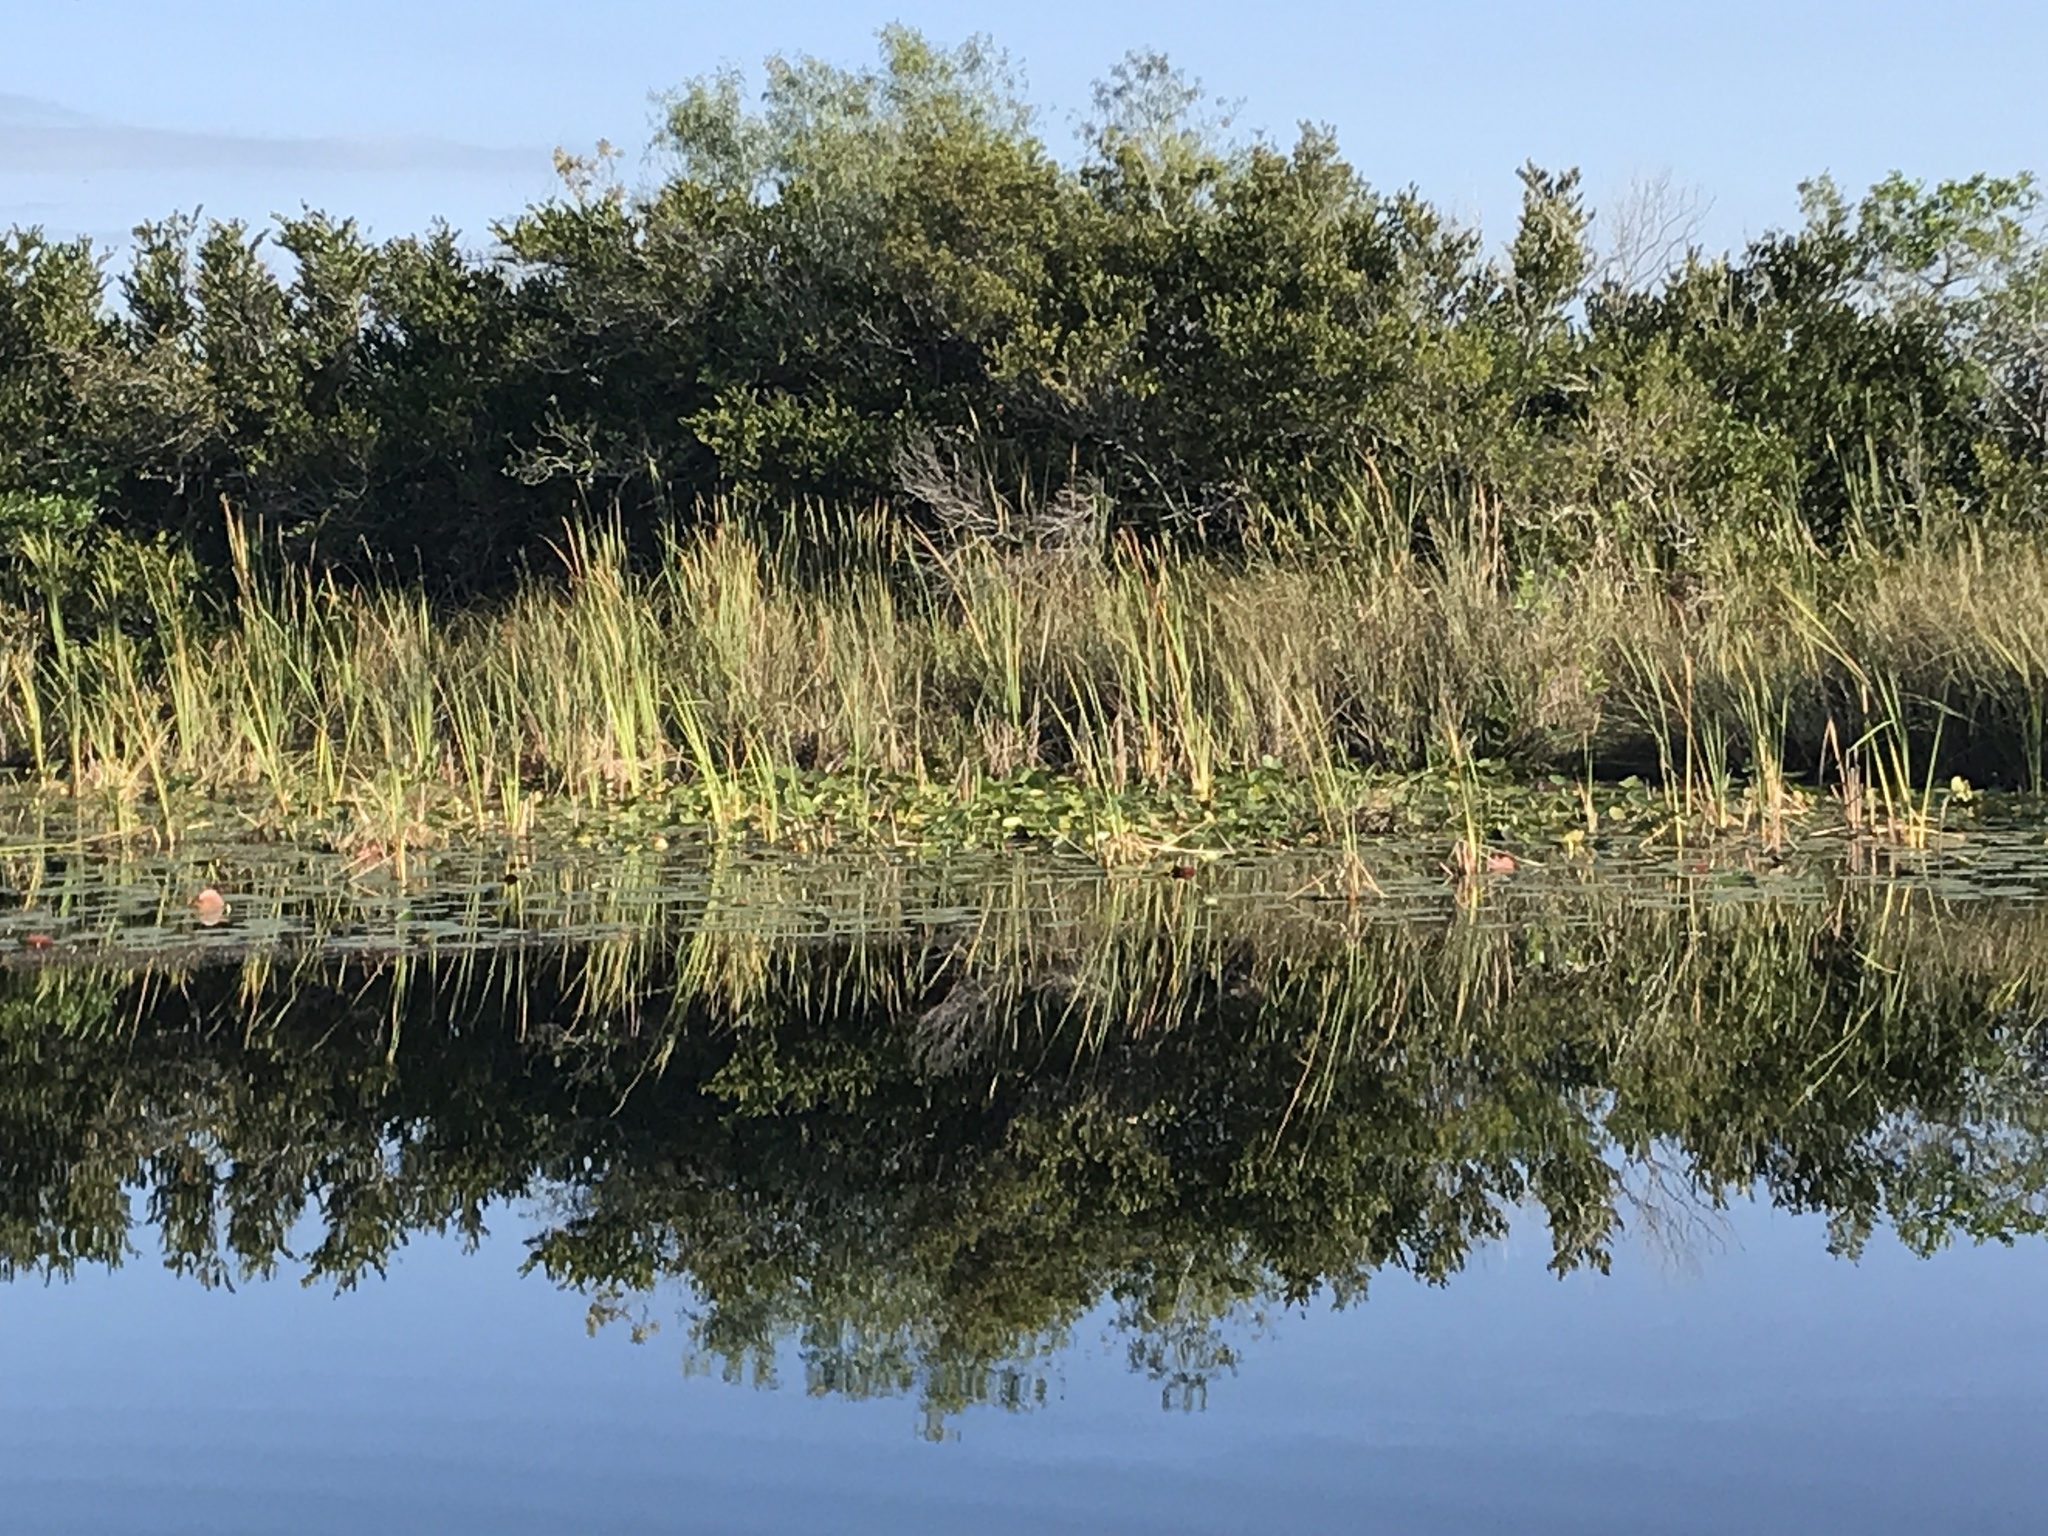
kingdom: Plantae
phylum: Tracheophyta
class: Liliopsida
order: Poales
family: Typhaceae
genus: Typha
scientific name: Typha domingensis
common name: Southern cattail
